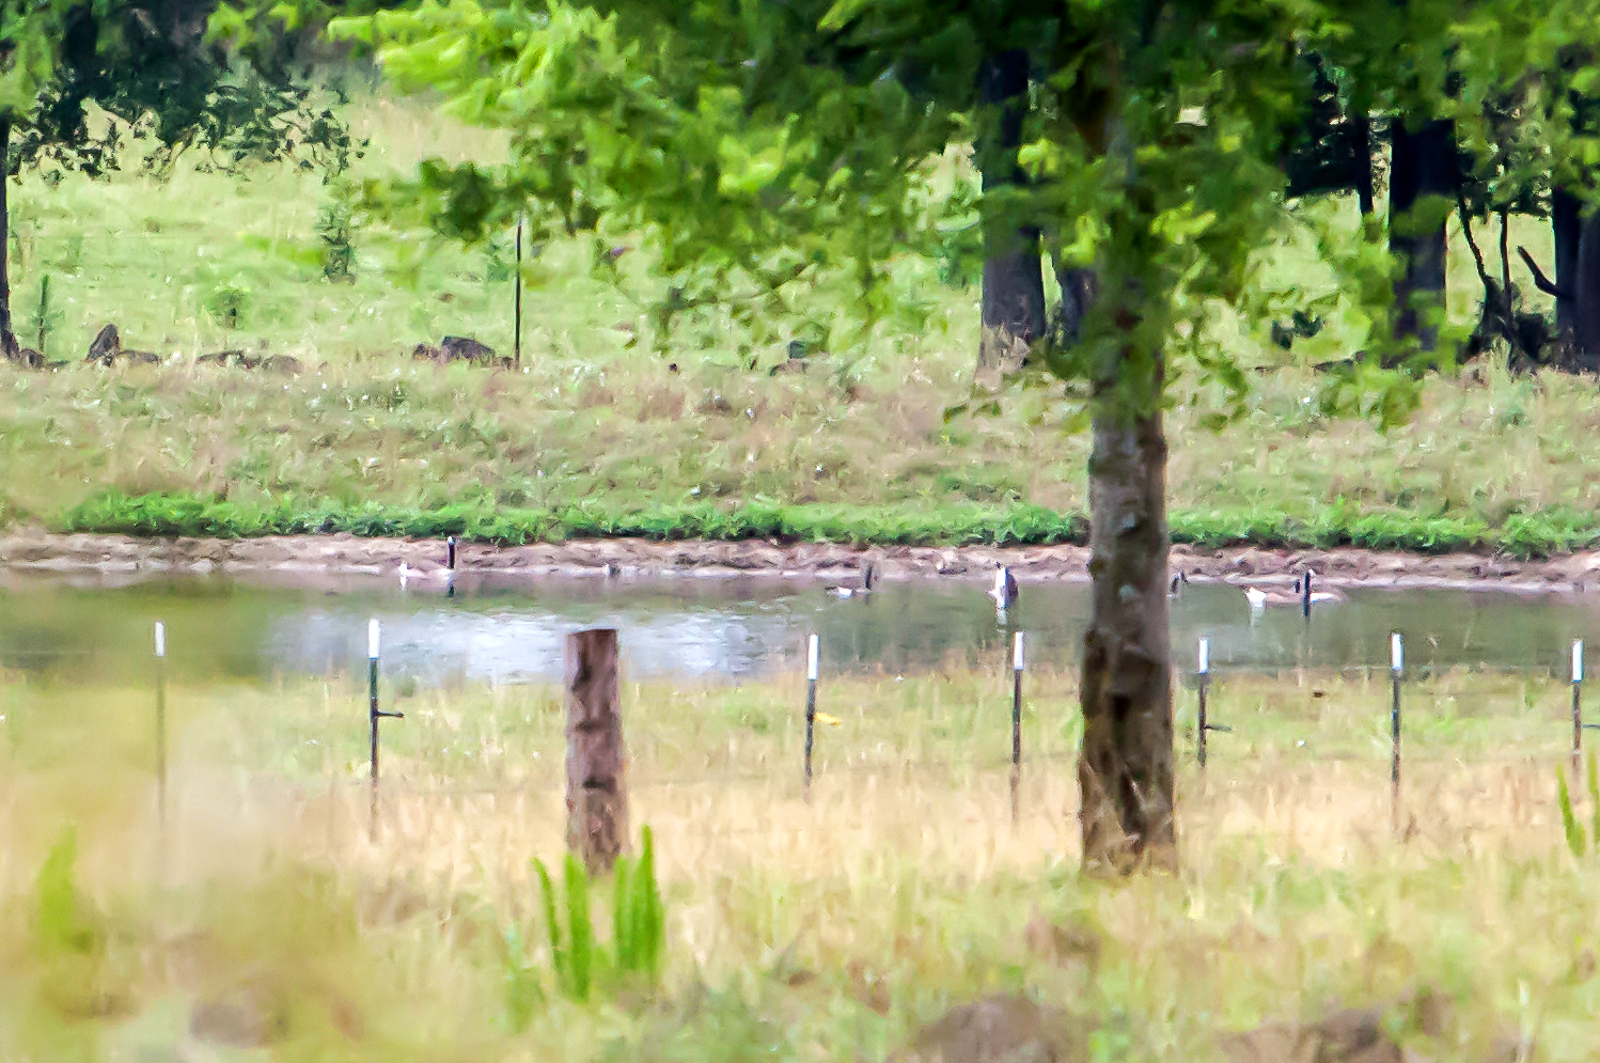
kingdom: Animalia
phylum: Chordata
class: Aves
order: Anseriformes
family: Anatidae
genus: Branta
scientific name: Branta canadensis
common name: Canada goose
